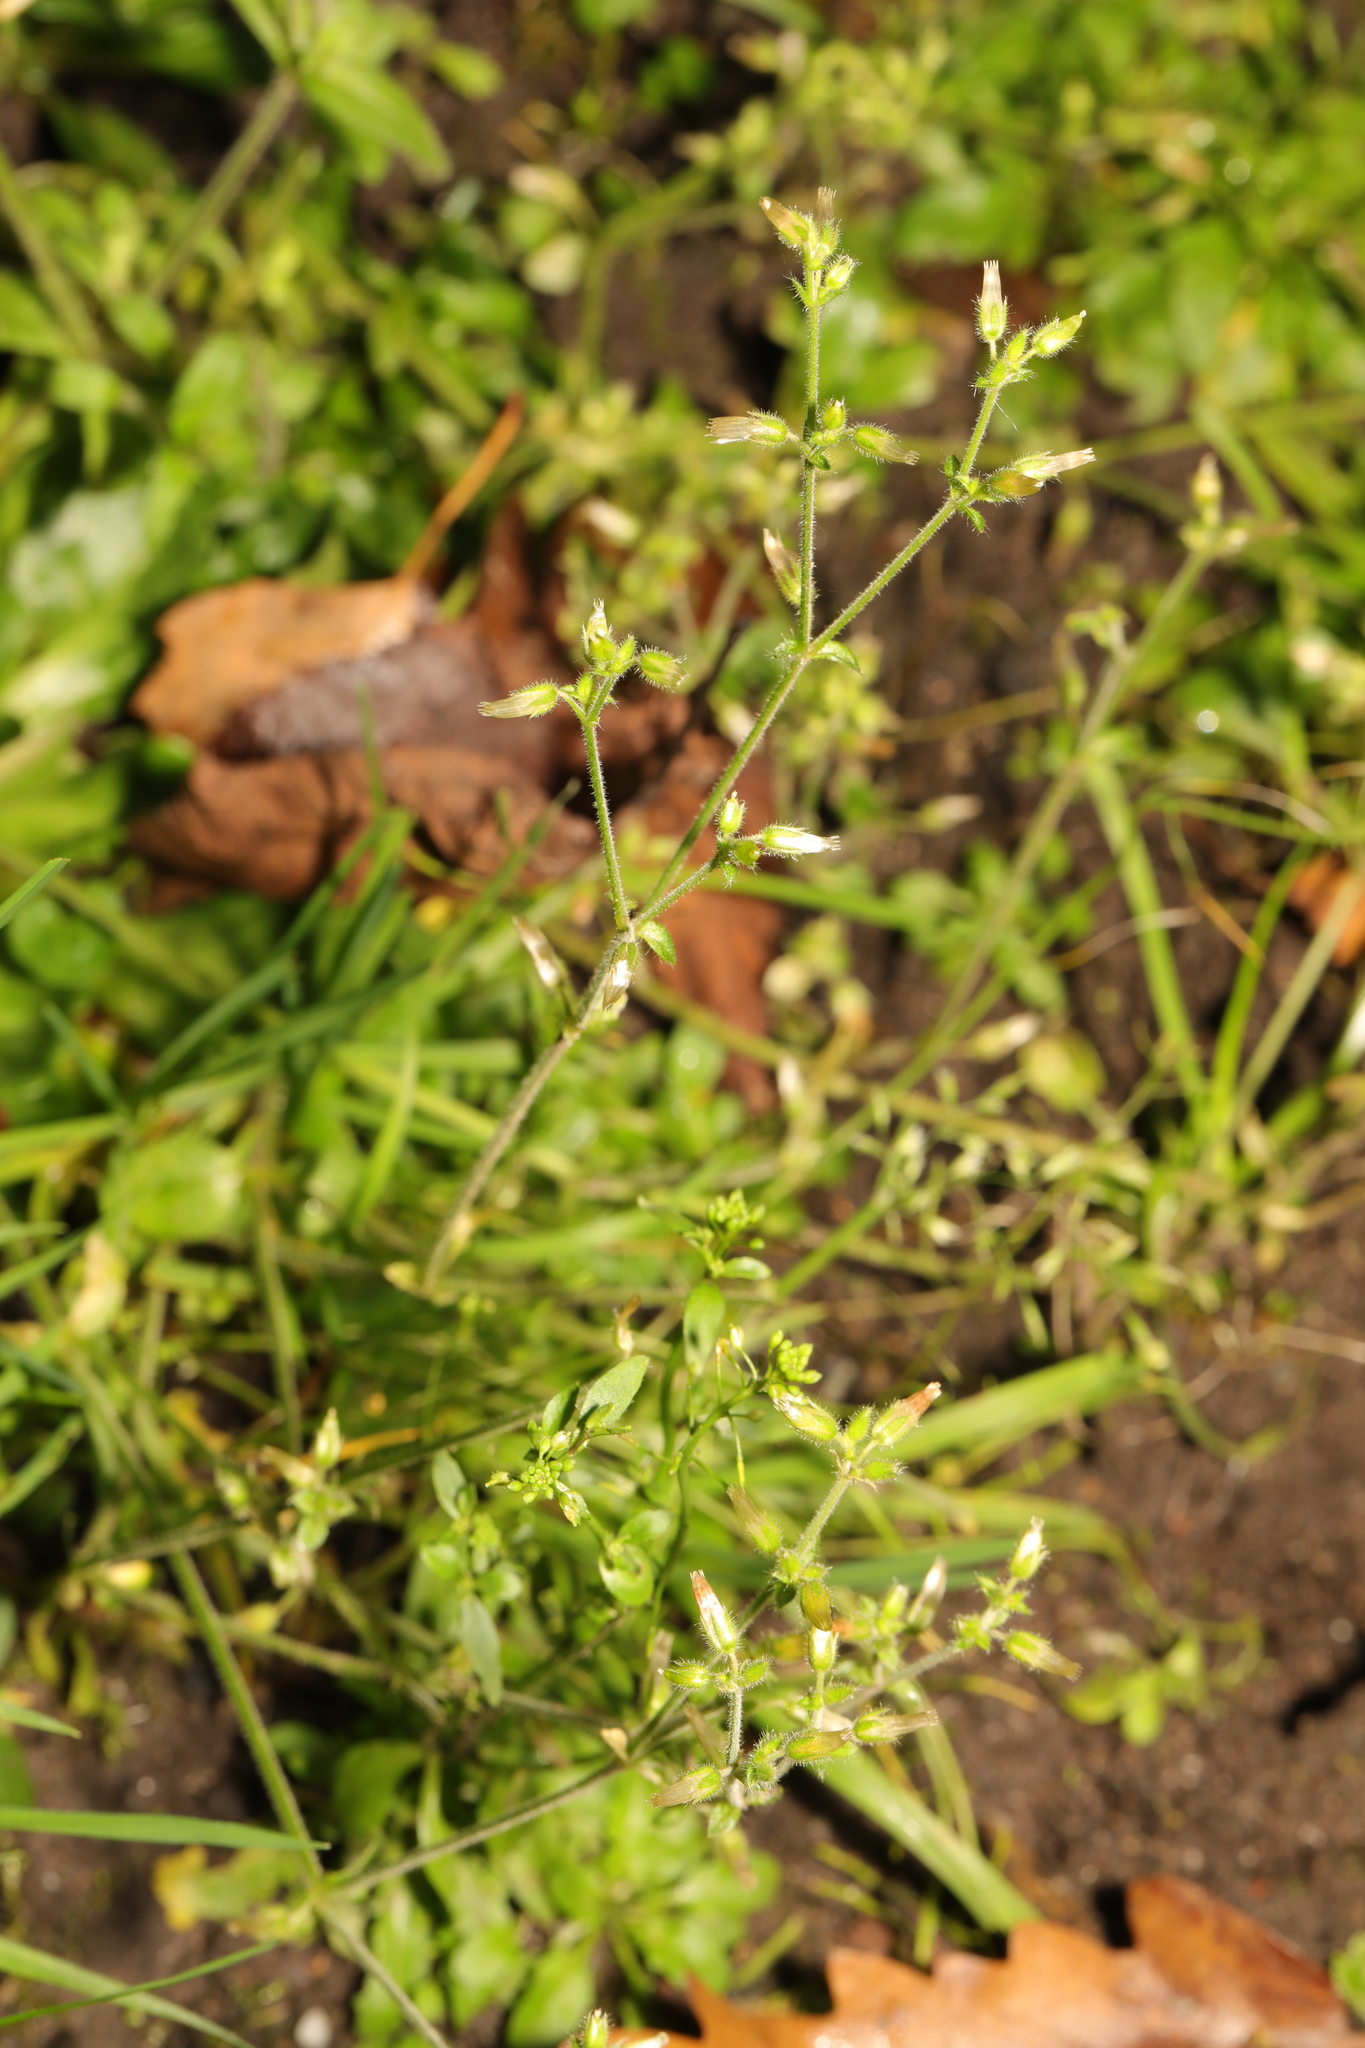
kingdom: Plantae
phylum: Tracheophyta
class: Magnoliopsida
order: Caryophyllales
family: Caryophyllaceae
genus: Cerastium
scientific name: Cerastium glomeratum
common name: Sticky chickweed
